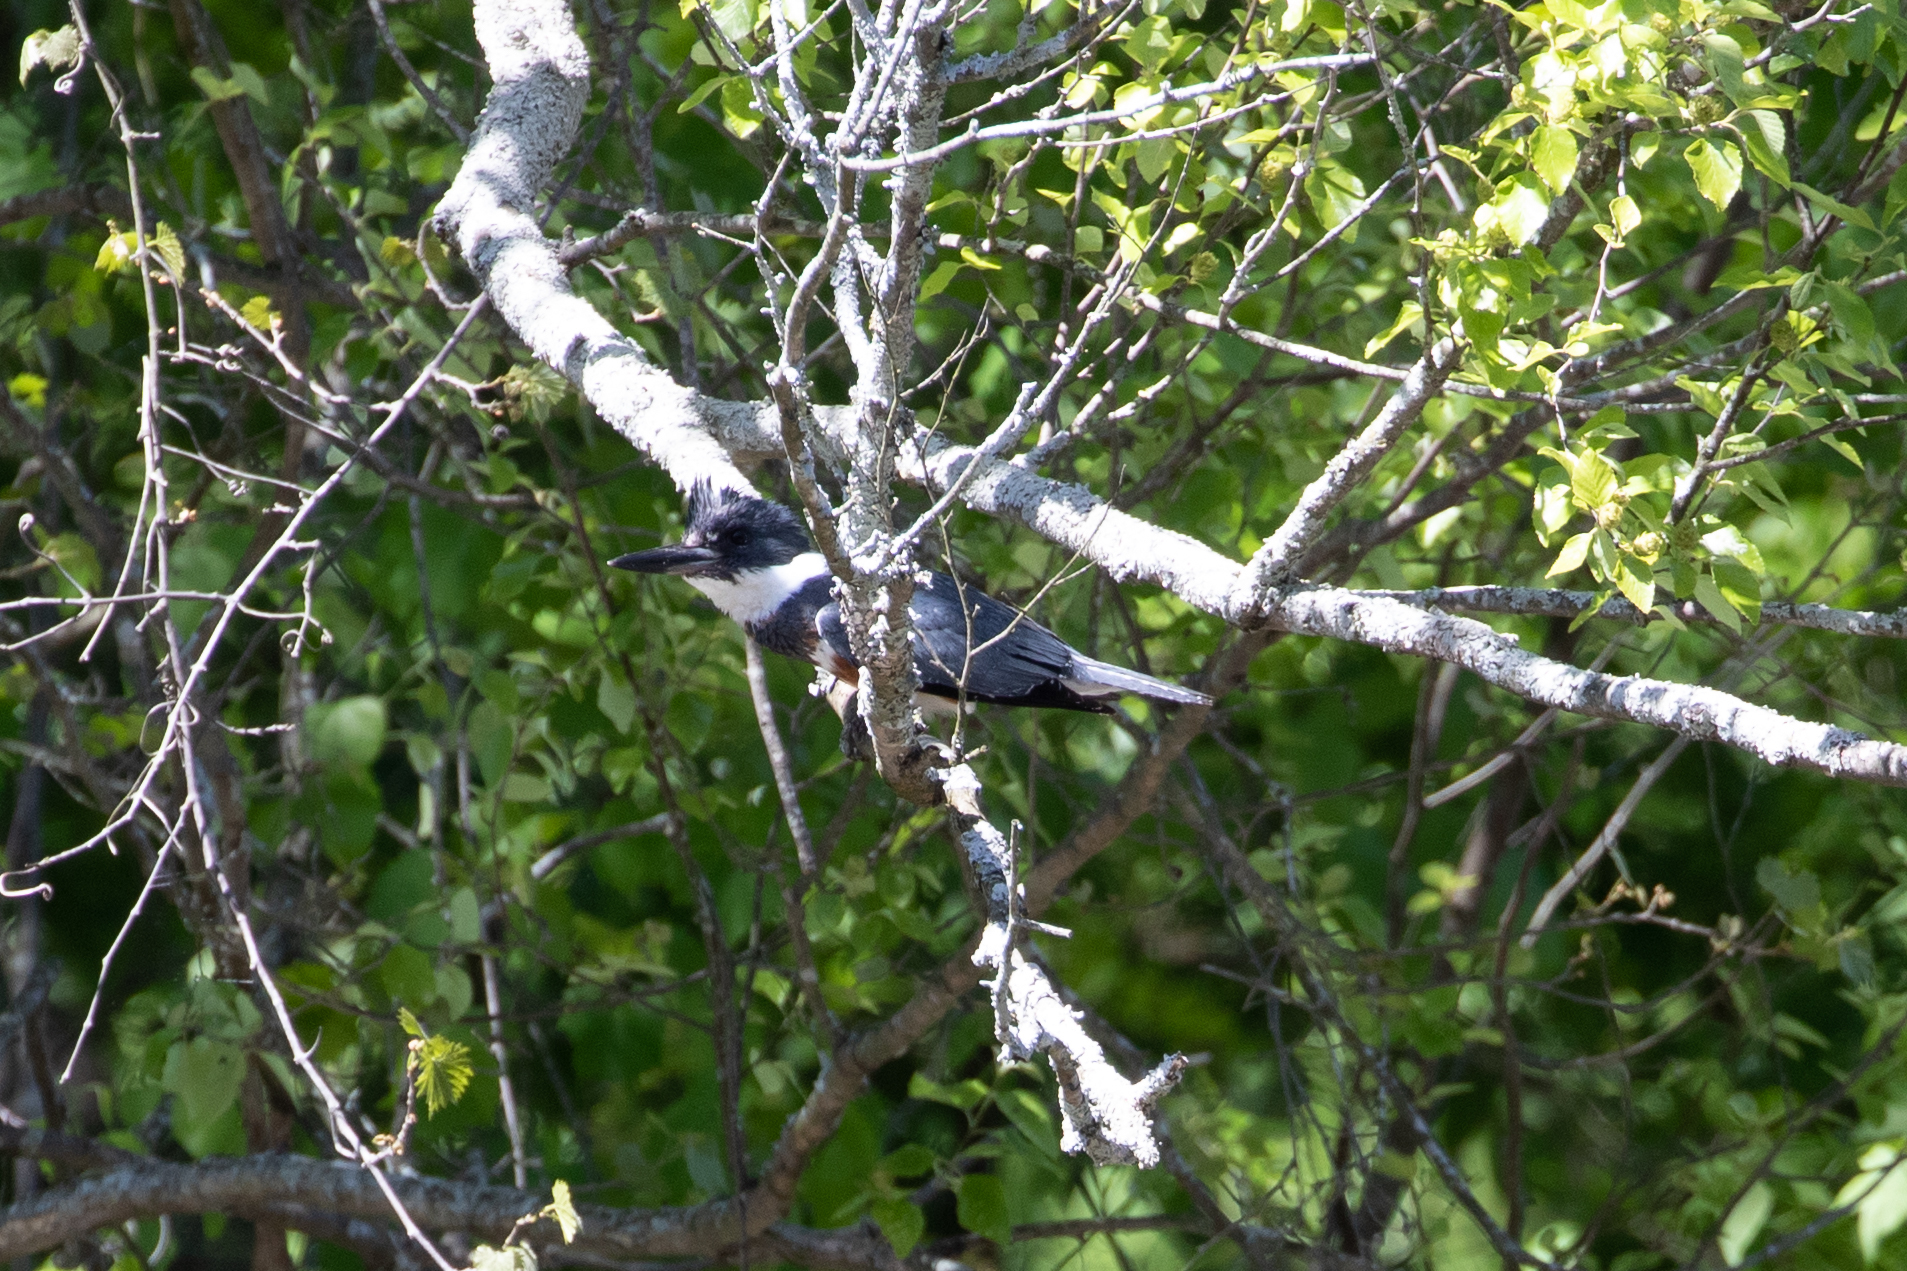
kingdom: Animalia
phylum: Chordata
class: Aves
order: Coraciiformes
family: Alcedinidae
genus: Megaceryle
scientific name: Megaceryle alcyon
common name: Belted kingfisher
